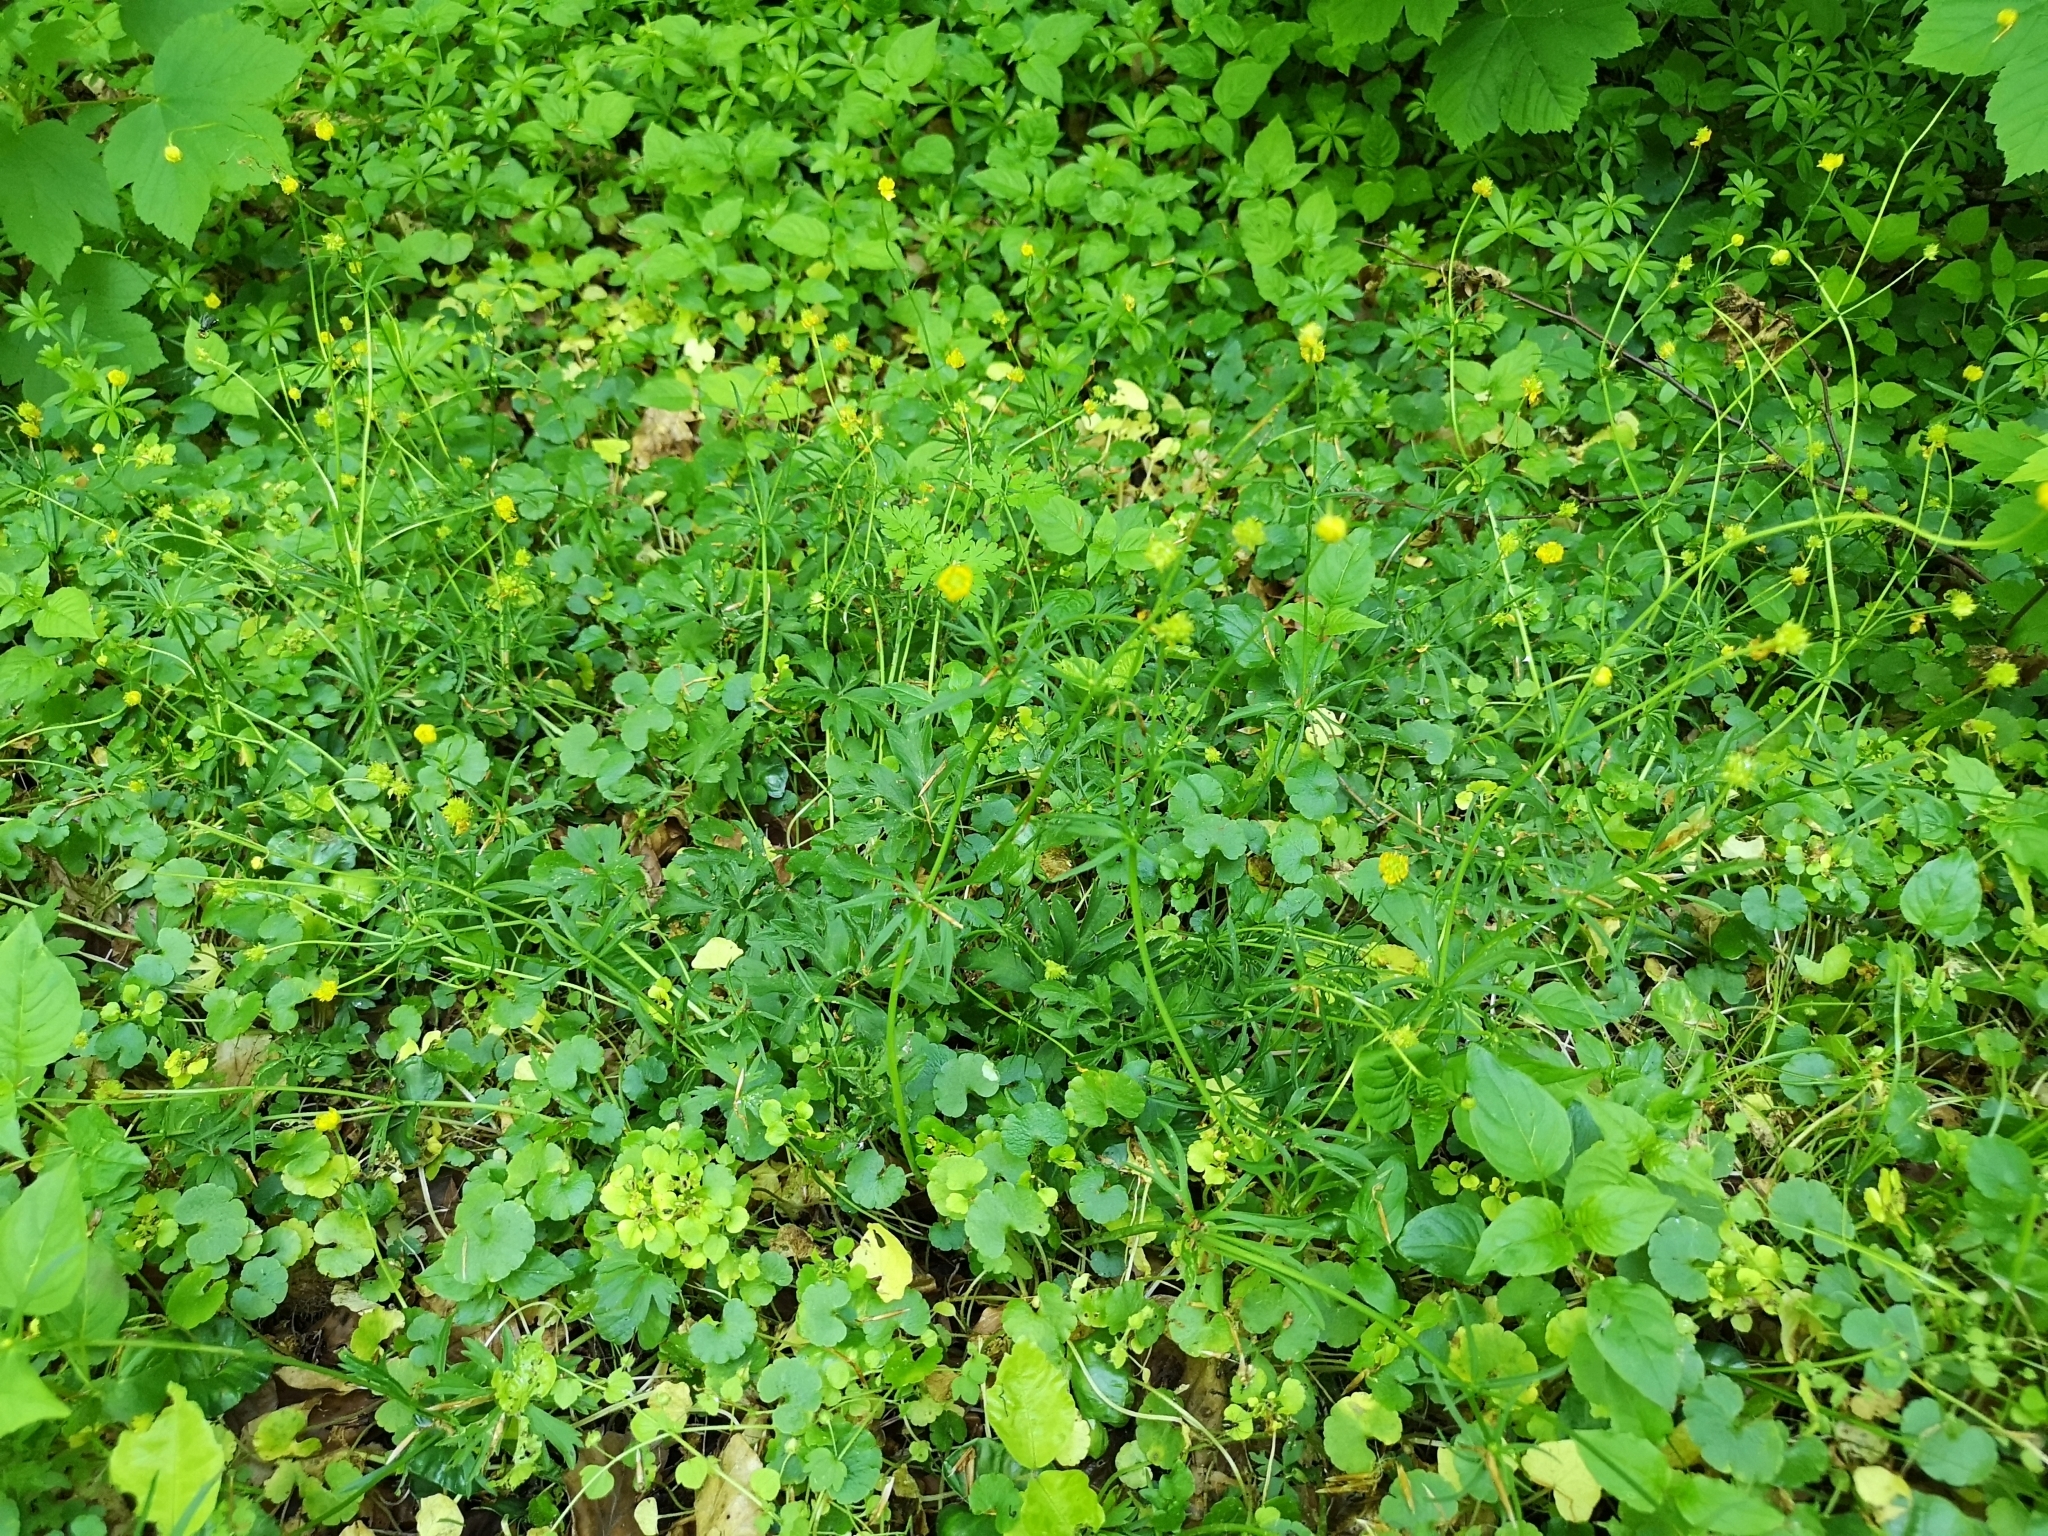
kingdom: Plantae
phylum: Tracheophyta
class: Magnoliopsida
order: Ranunculales
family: Ranunculaceae
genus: Ranunculus
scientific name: Ranunculus auricomus
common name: Goldilocks buttercup
